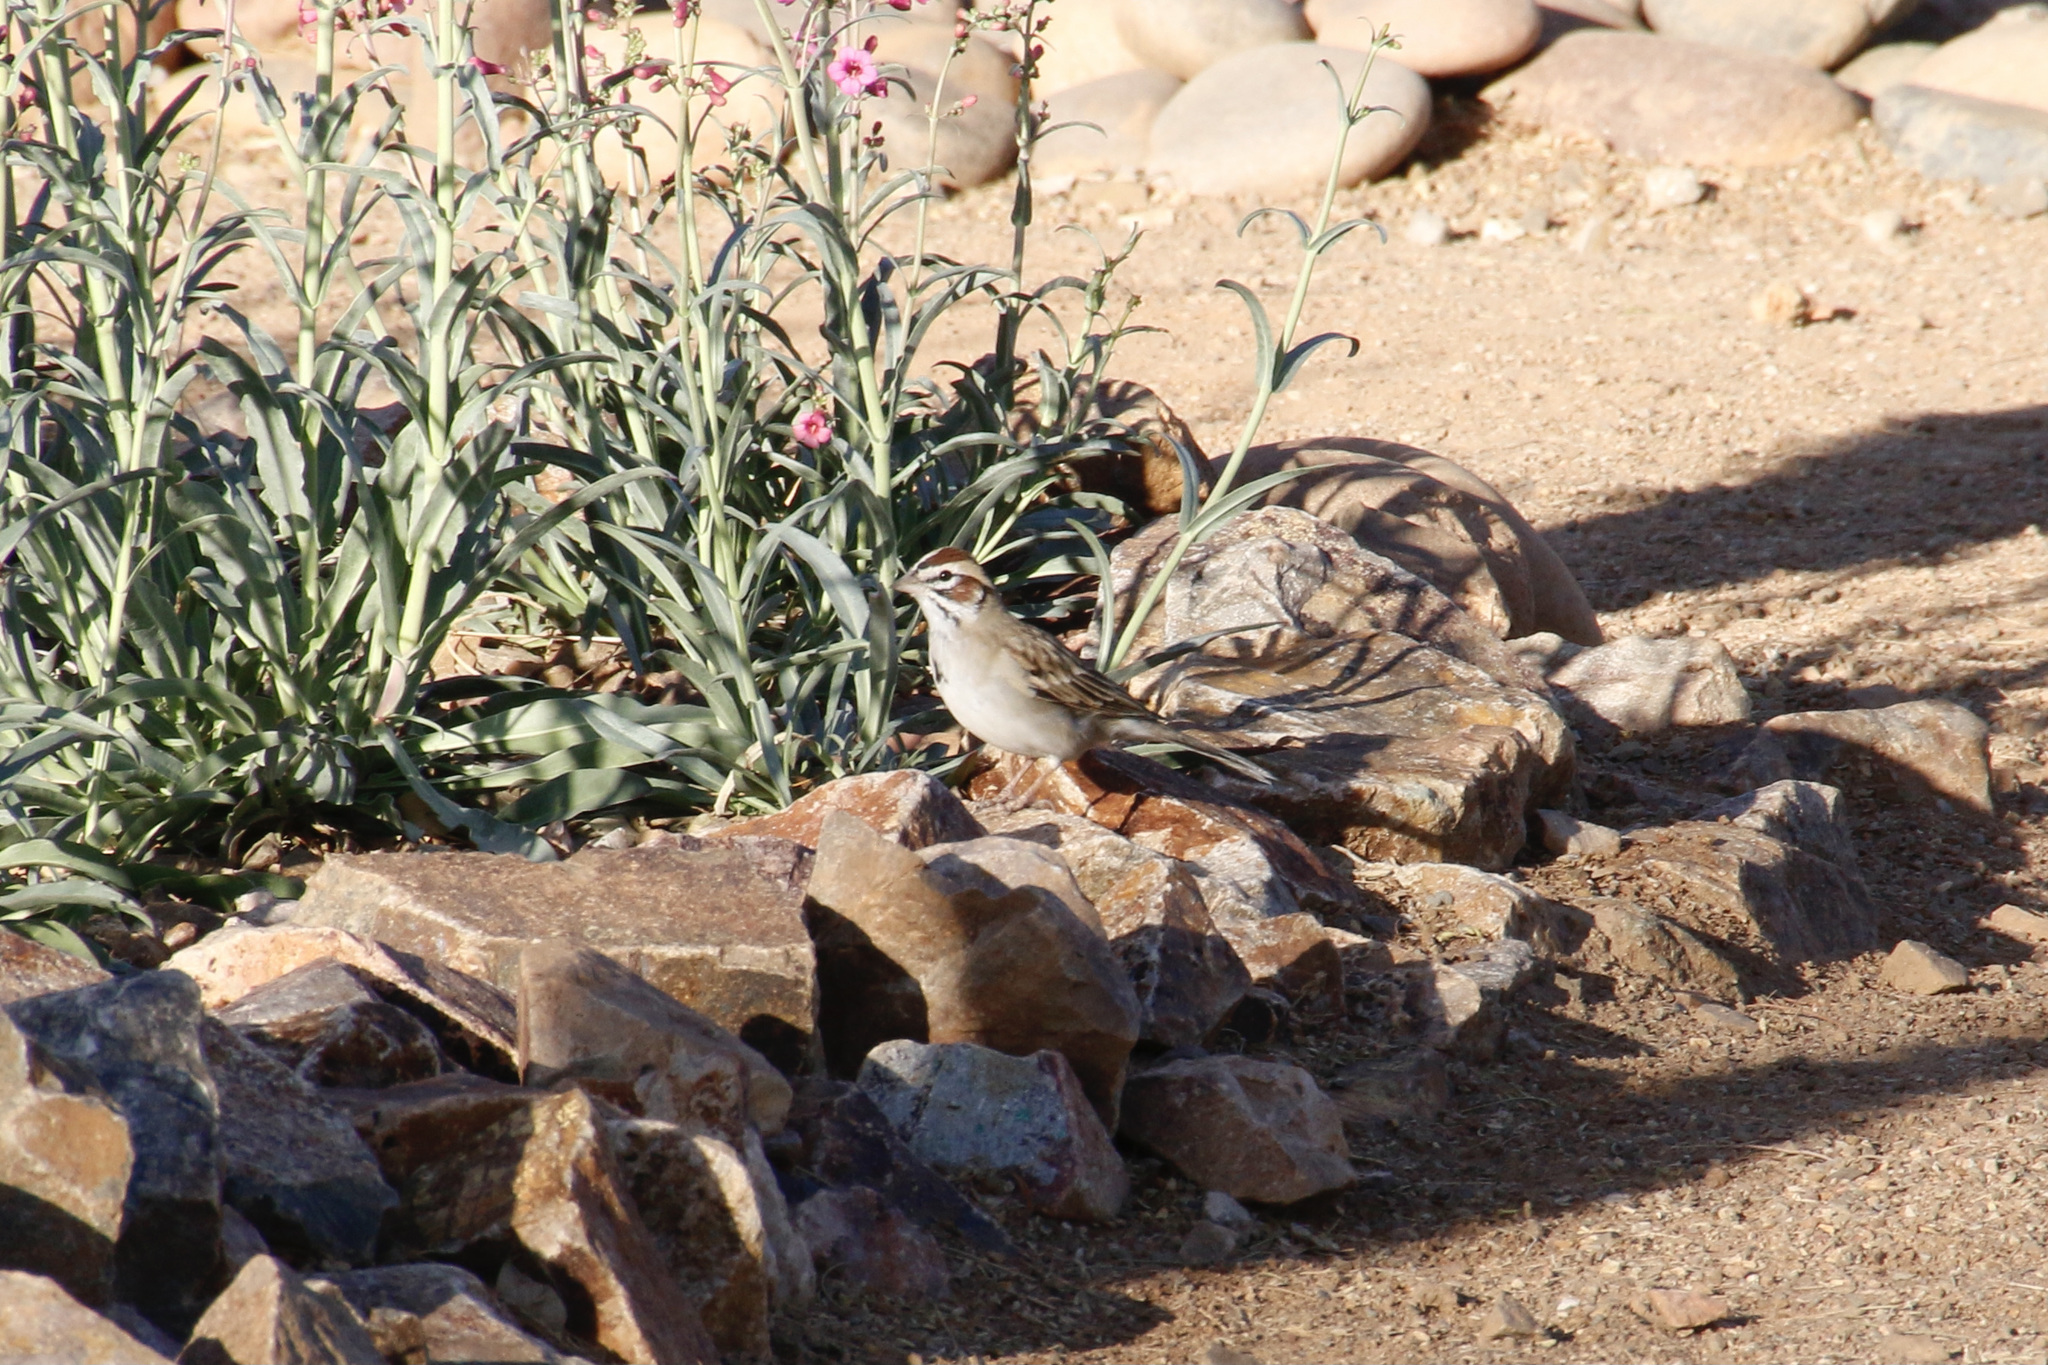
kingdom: Animalia
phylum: Chordata
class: Aves
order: Passeriformes
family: Passerellidae
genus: Chondestes
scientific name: Chondestes grammacus
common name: Lark sparrow
